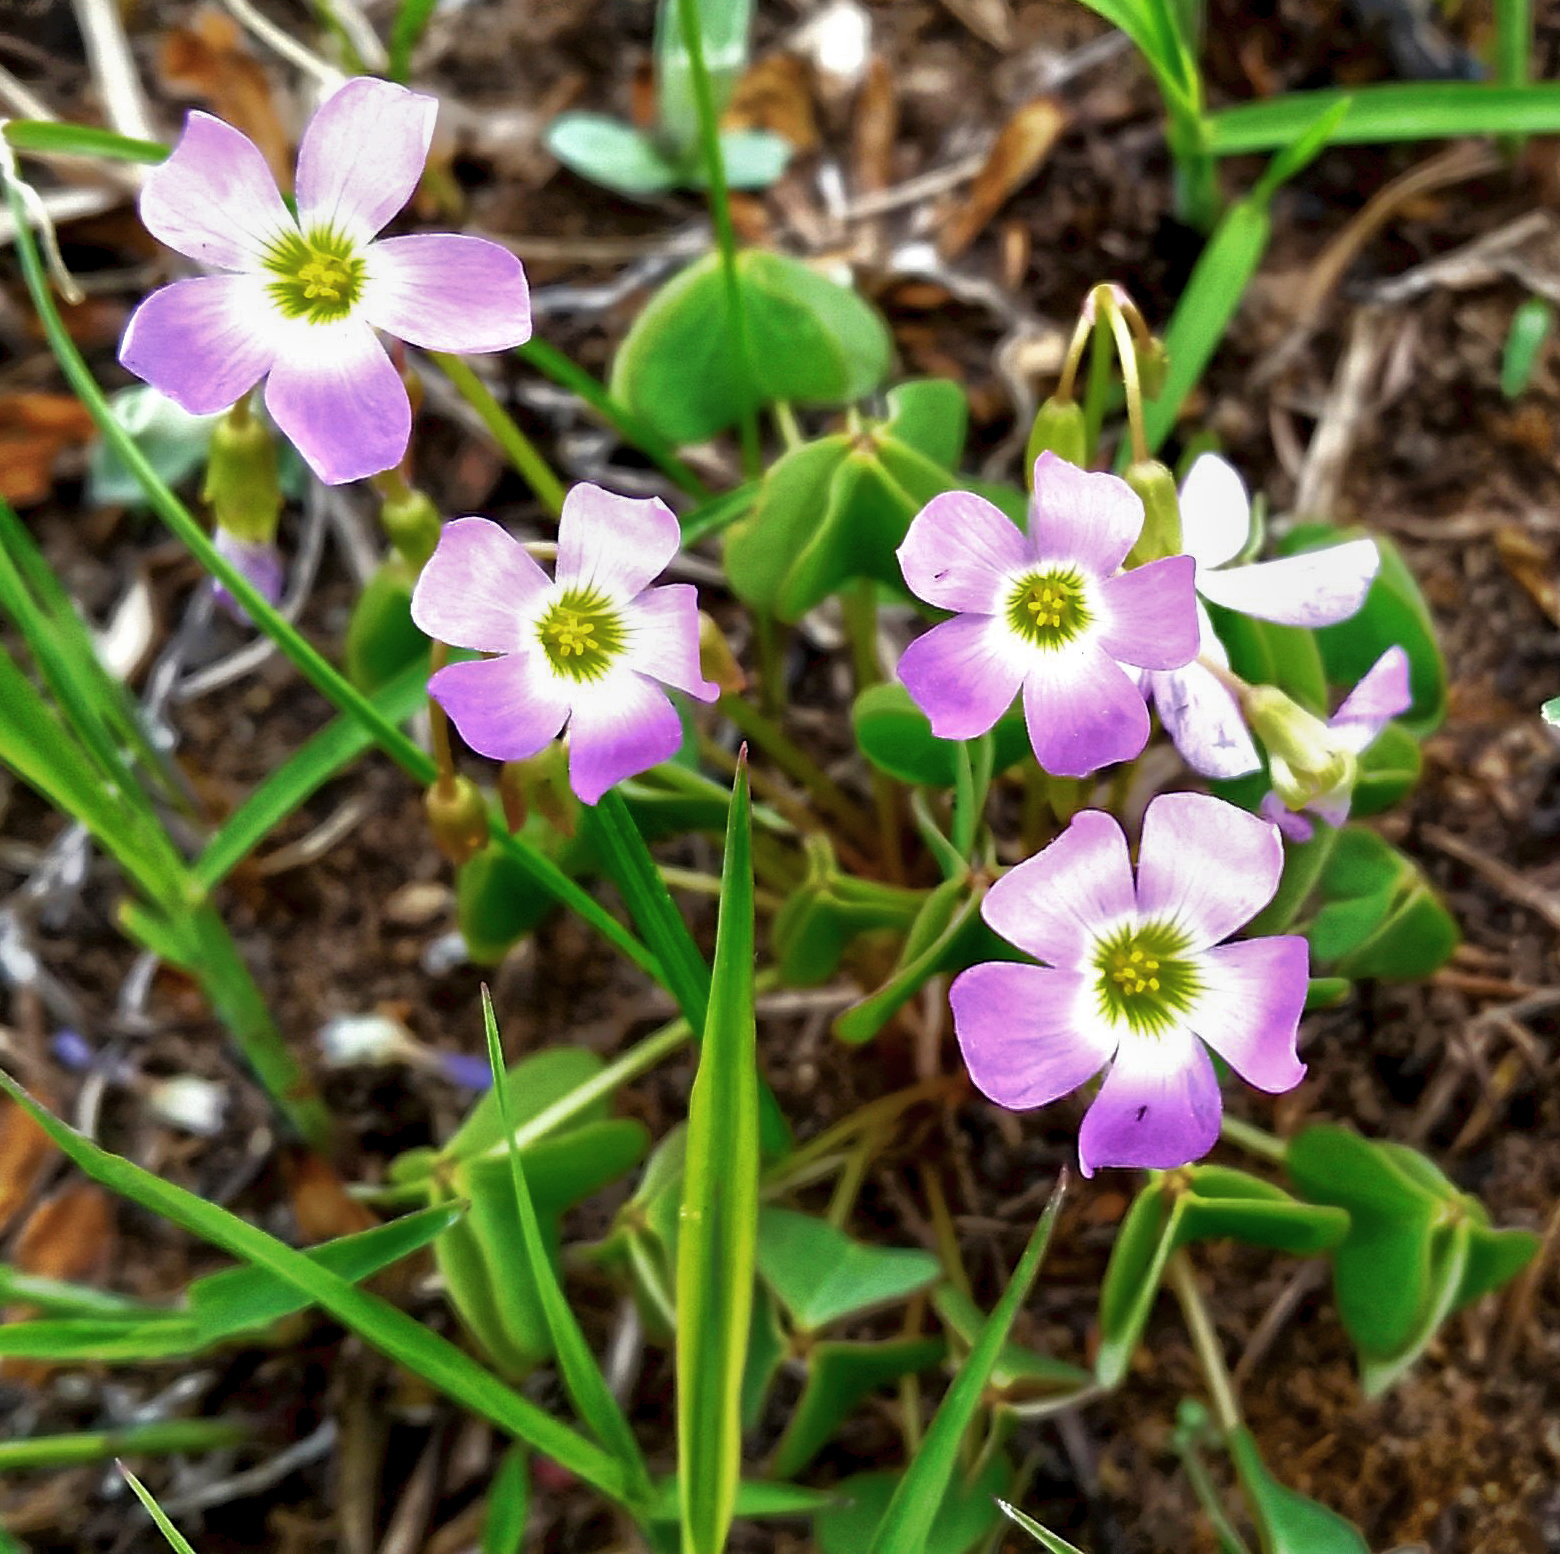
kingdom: Plantae
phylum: Tracheophyta
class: Magnoliopsida
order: Oxalidales
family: Oxalidaceae
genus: Oxalis
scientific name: Oxalis violacea
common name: Violet wood-sorrel
